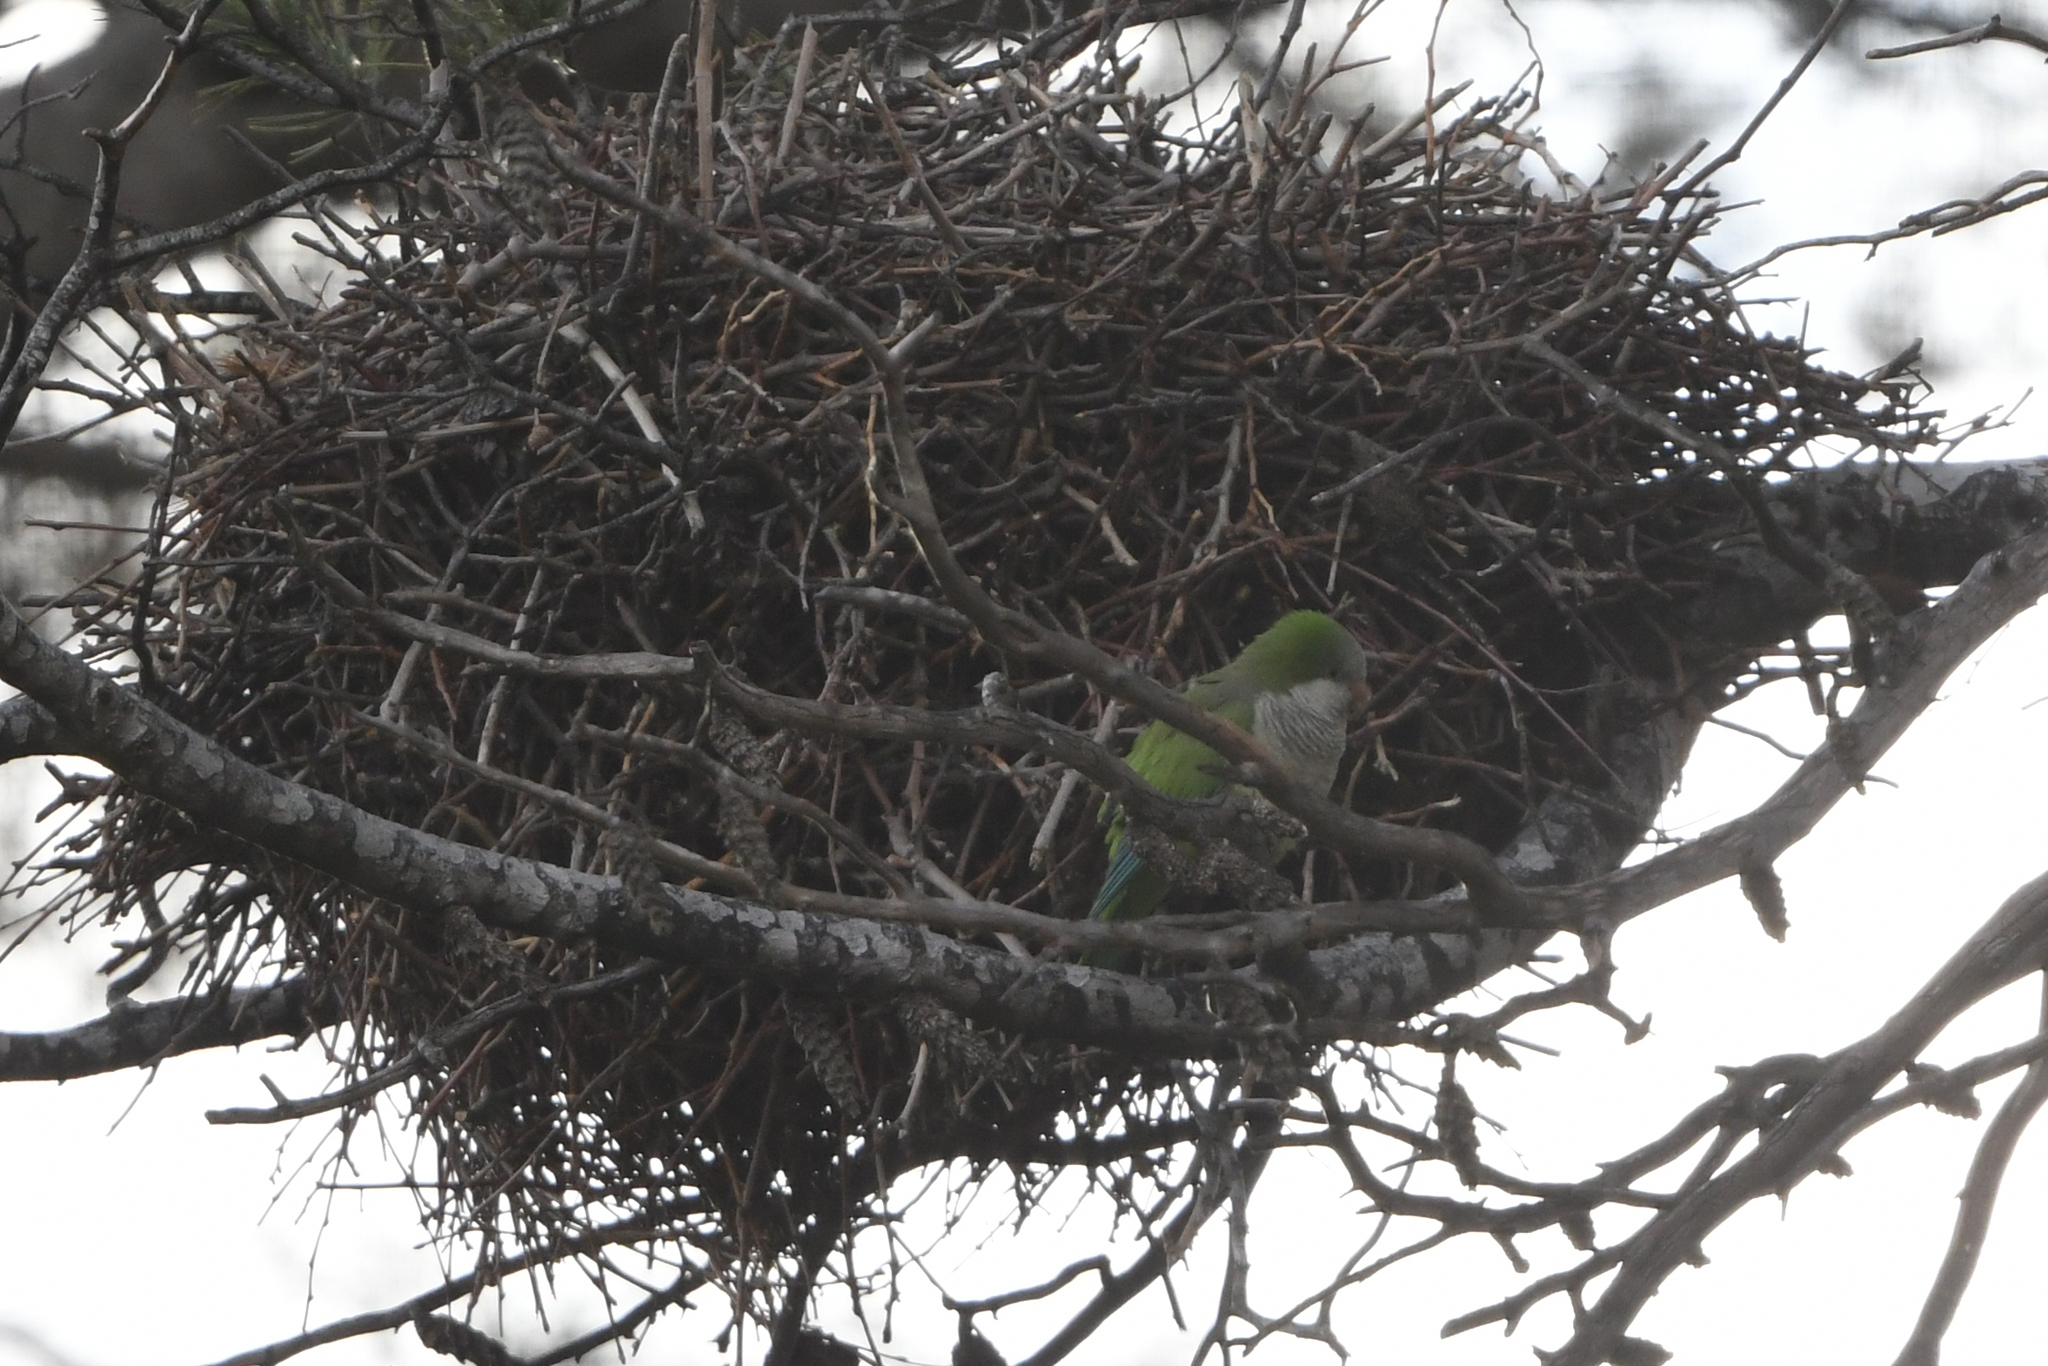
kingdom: Animalia
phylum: Chordata
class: Aves
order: Psittaciformes
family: Psittacidae
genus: Myiopsitta
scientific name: Myiopsitta monachus
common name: Monk parakeet
